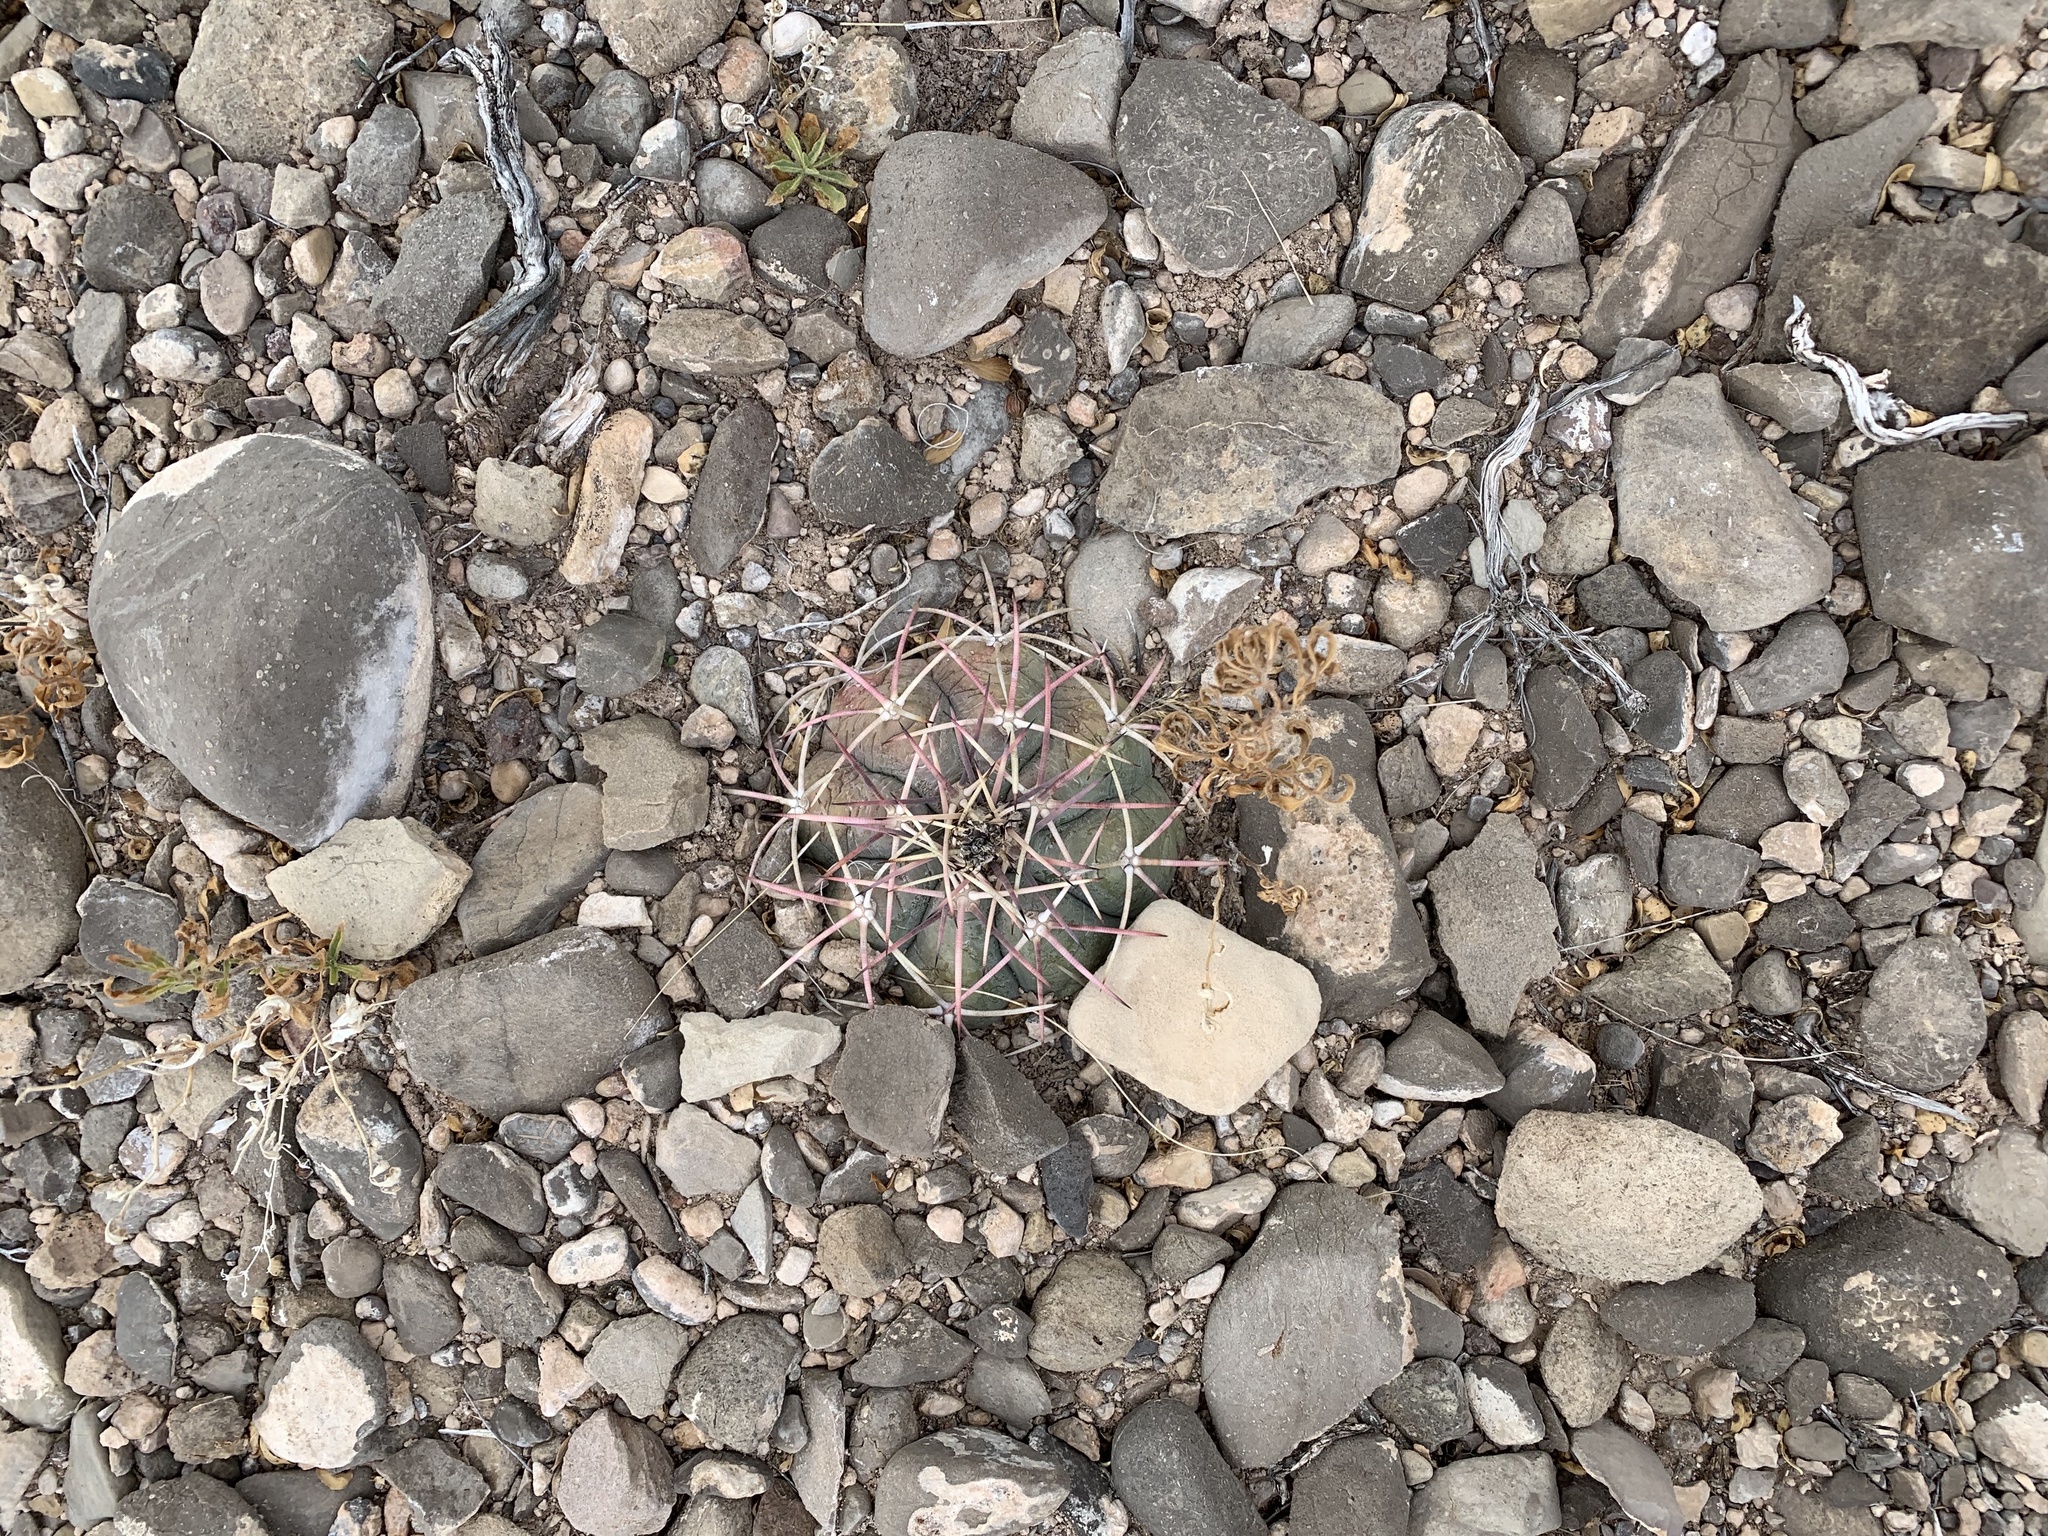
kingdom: Plantae
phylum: Tracheophyta
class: Magnoliopsida
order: Caryophyllales
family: Cactaceae
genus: Echinocactus
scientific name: Echinocactus horizonthalonius
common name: Devilshead
